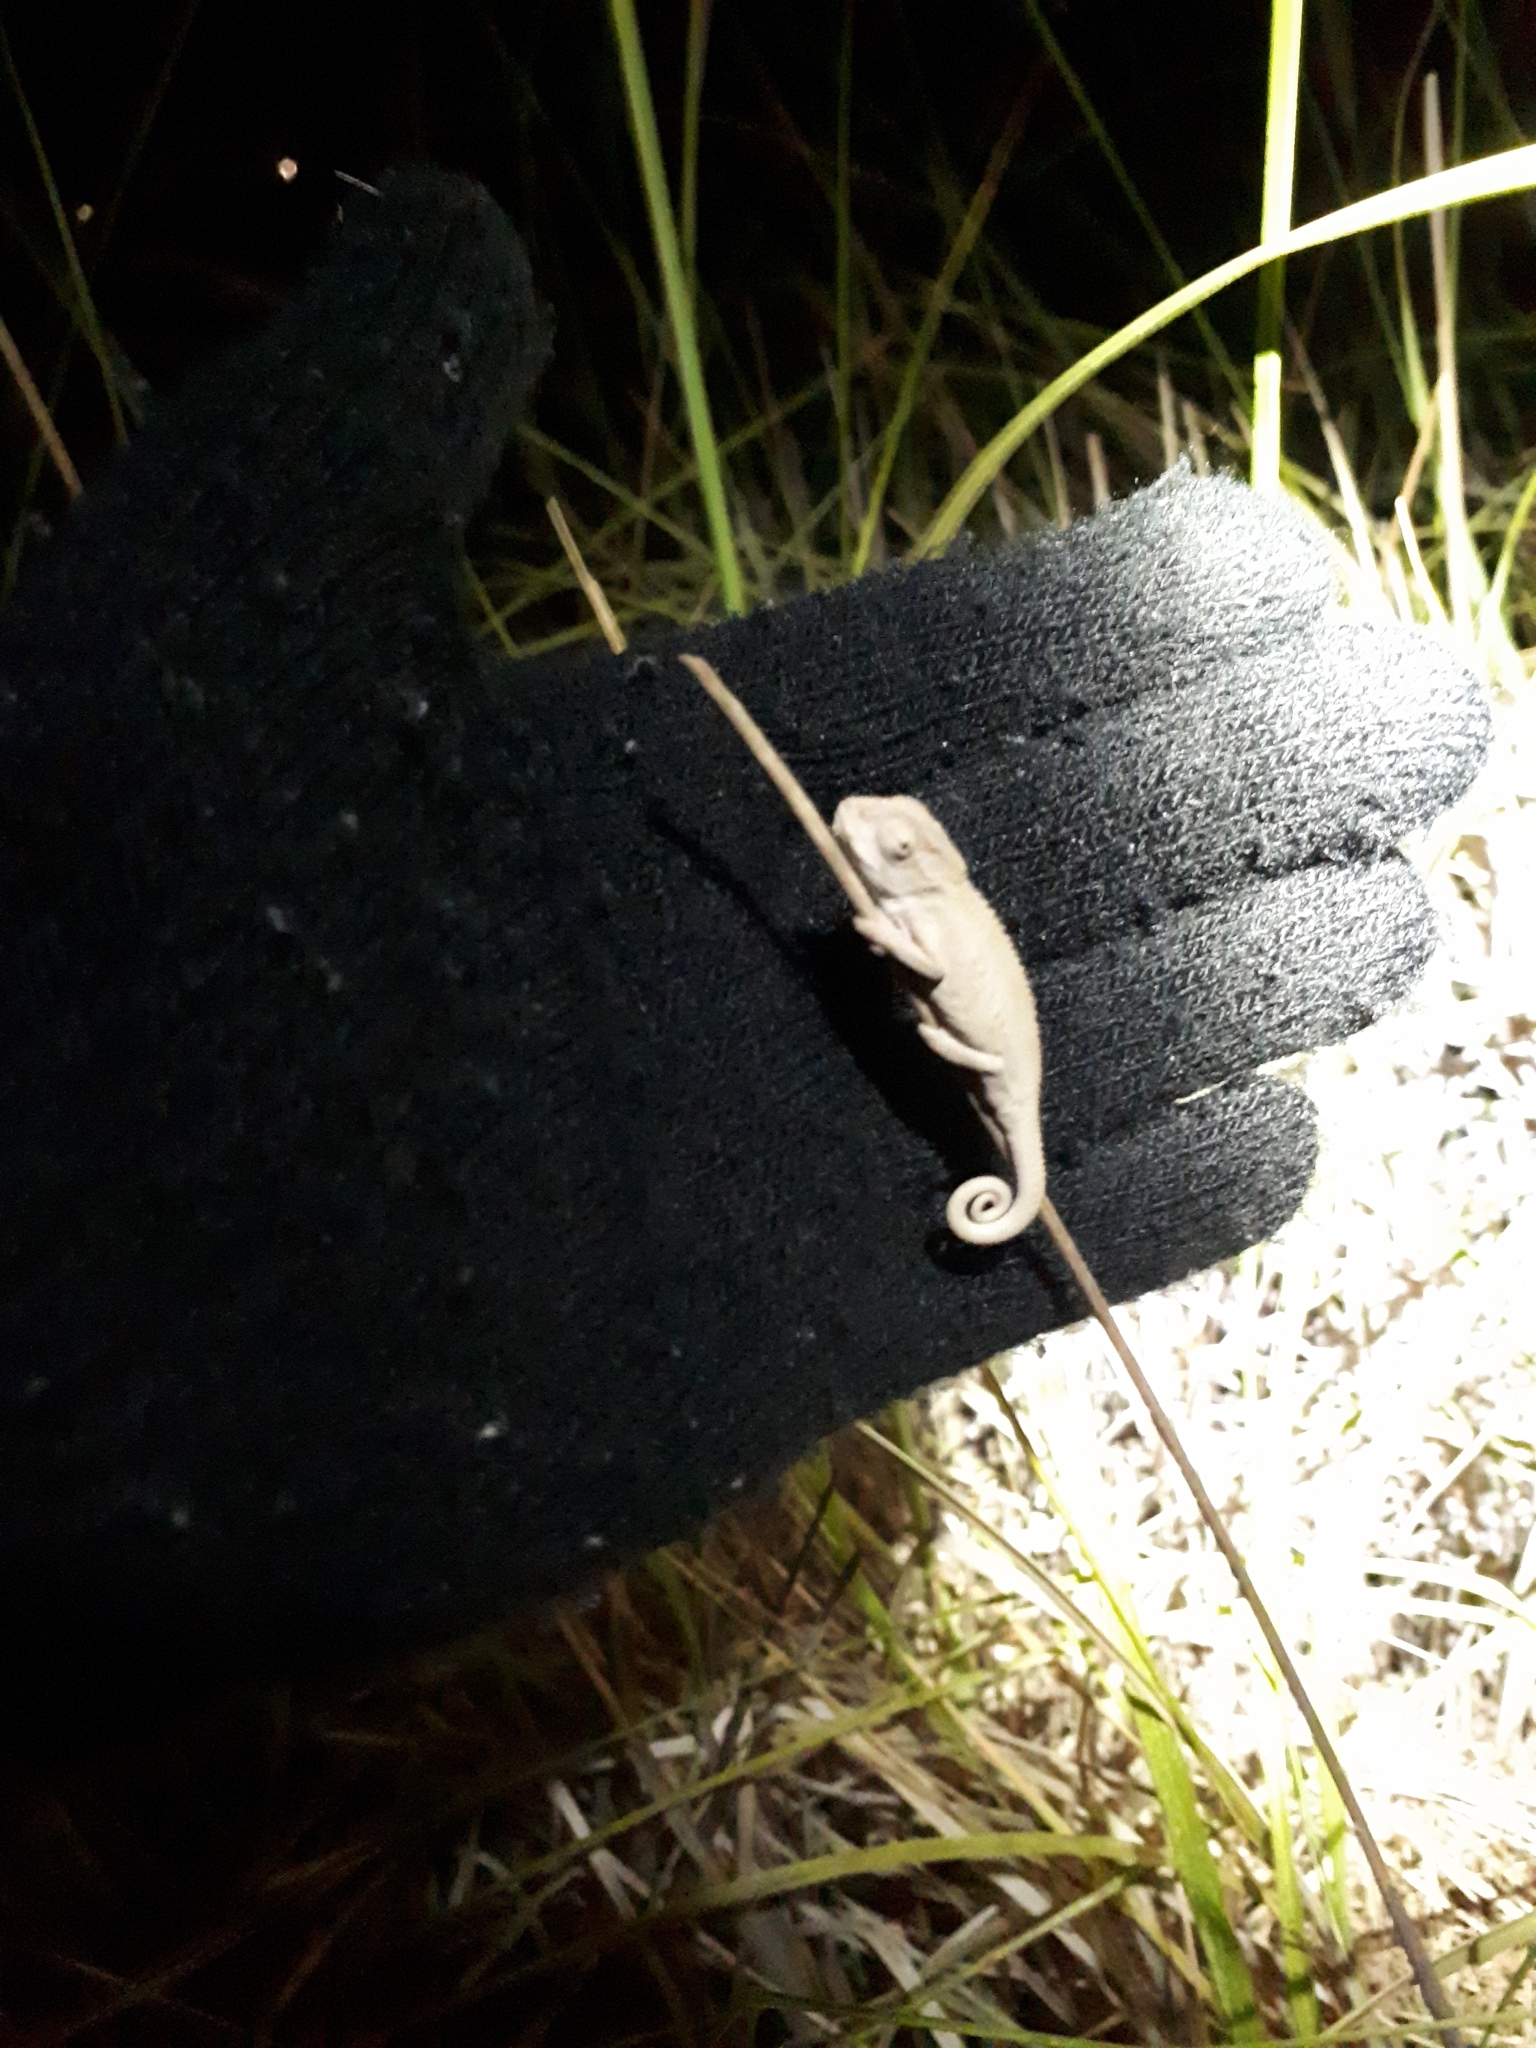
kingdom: Animalia
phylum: Chordata
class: Squamata
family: Chamaeleonidae
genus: Bradypodion
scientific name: Bradypodion pumilum
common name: Cape dwarf chameleon
